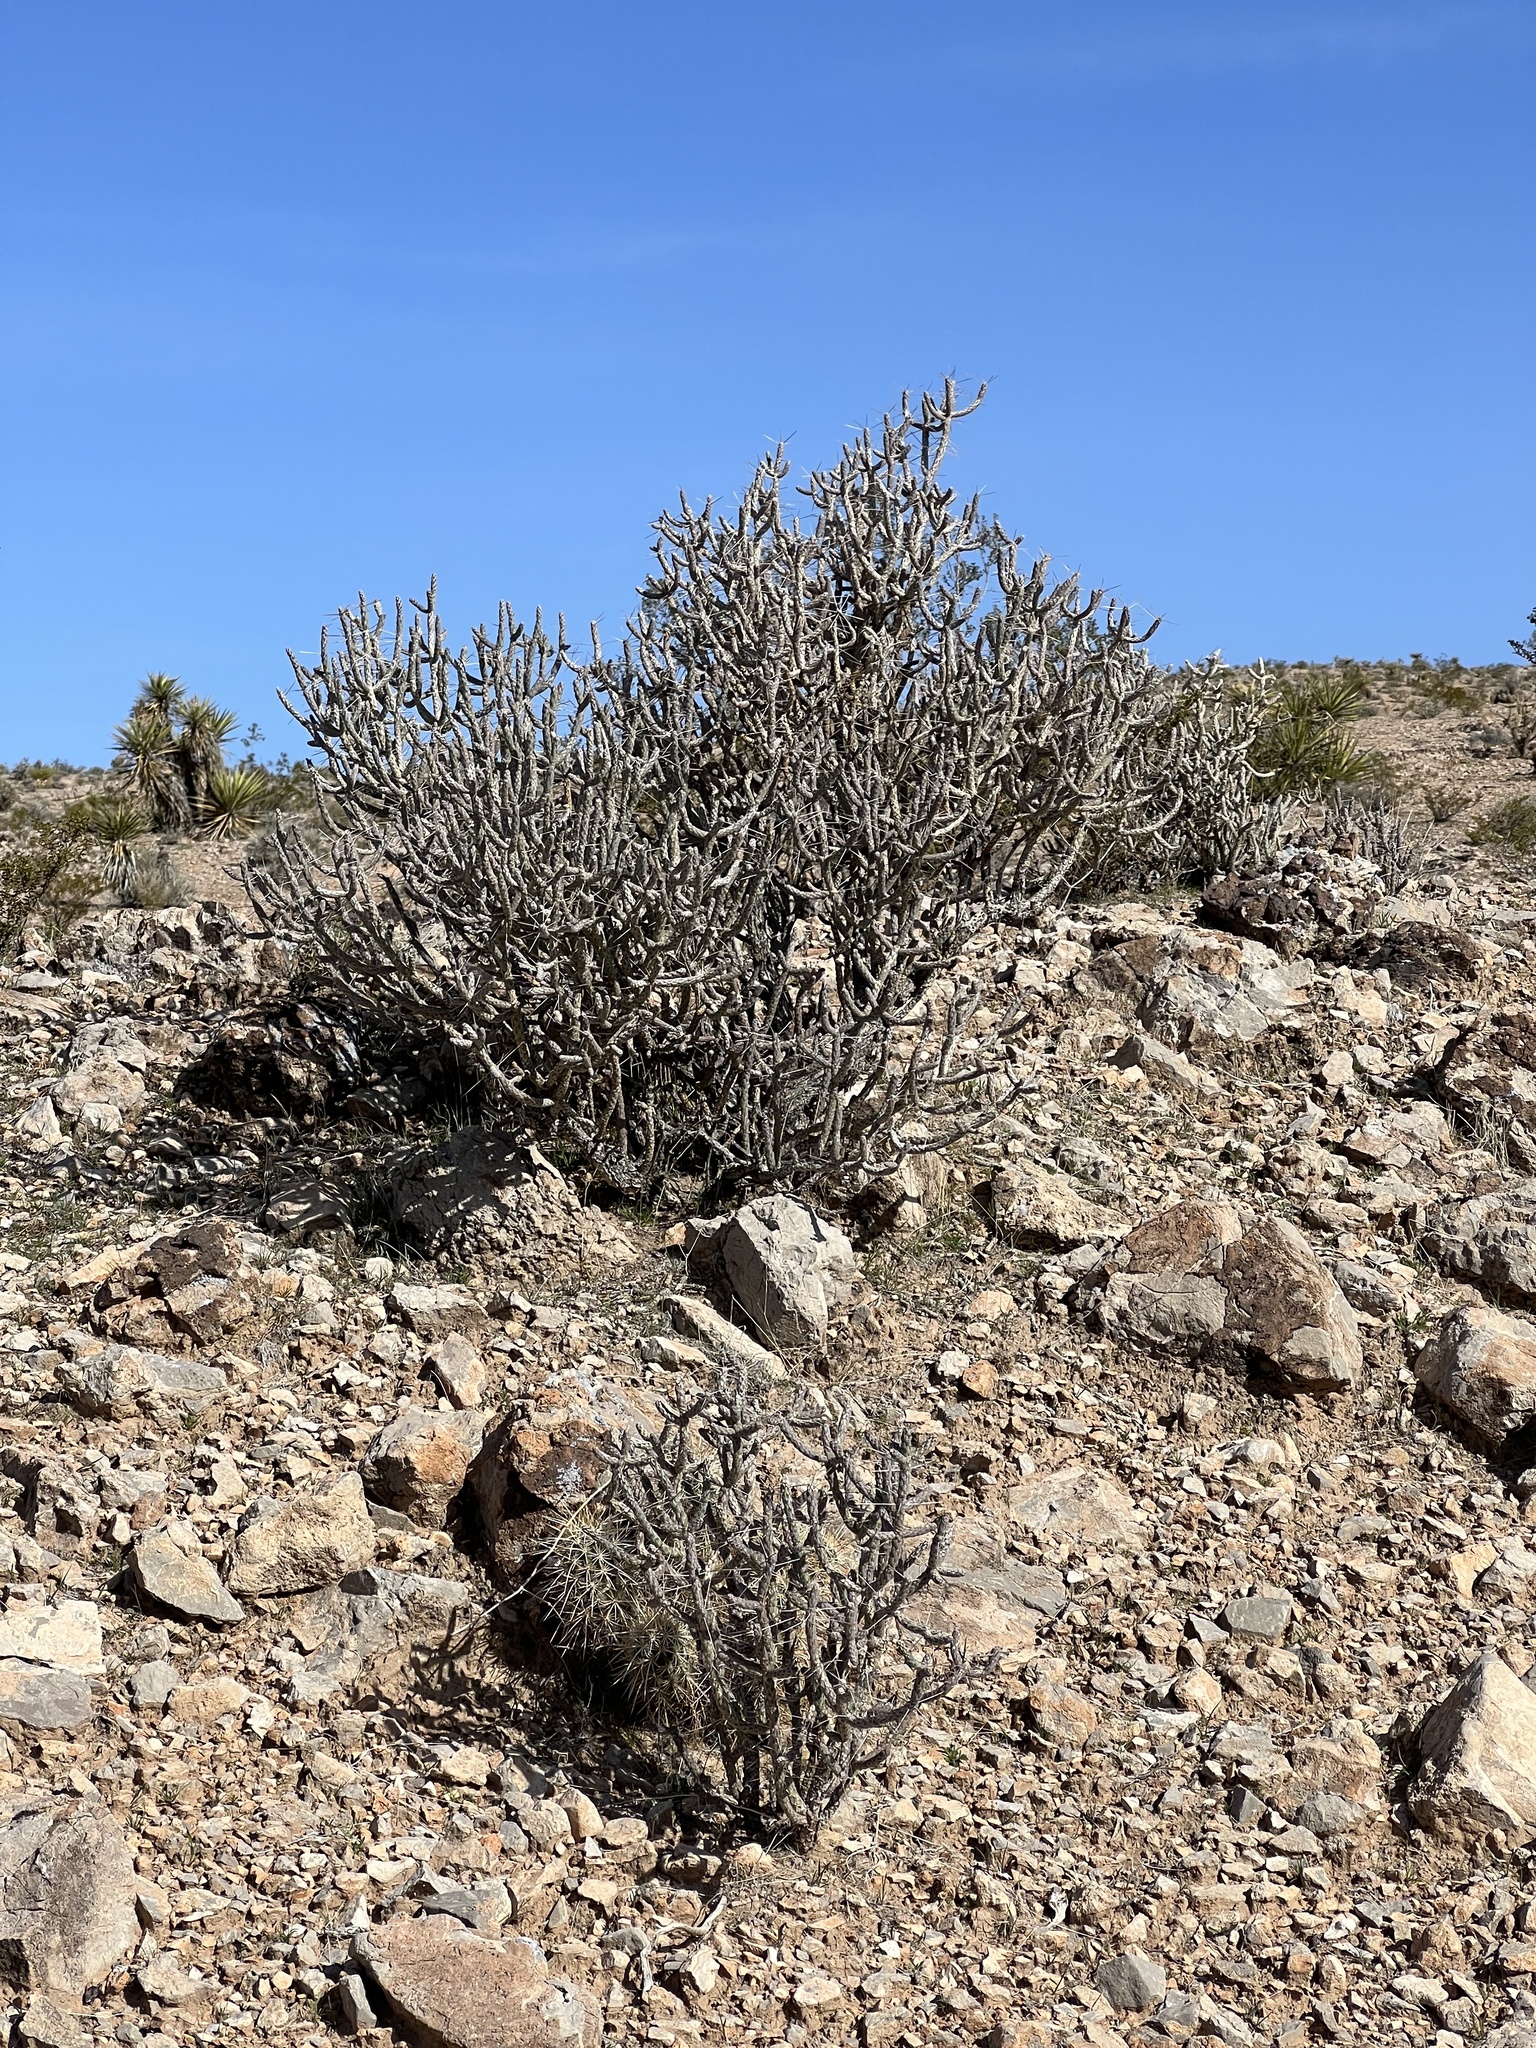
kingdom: Plantae
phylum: Tracheophyta
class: Magnoliopsida
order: Caryophyllales
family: Cactaceae
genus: Cylindropuntia
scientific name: Cylindropuntia ramosissima
